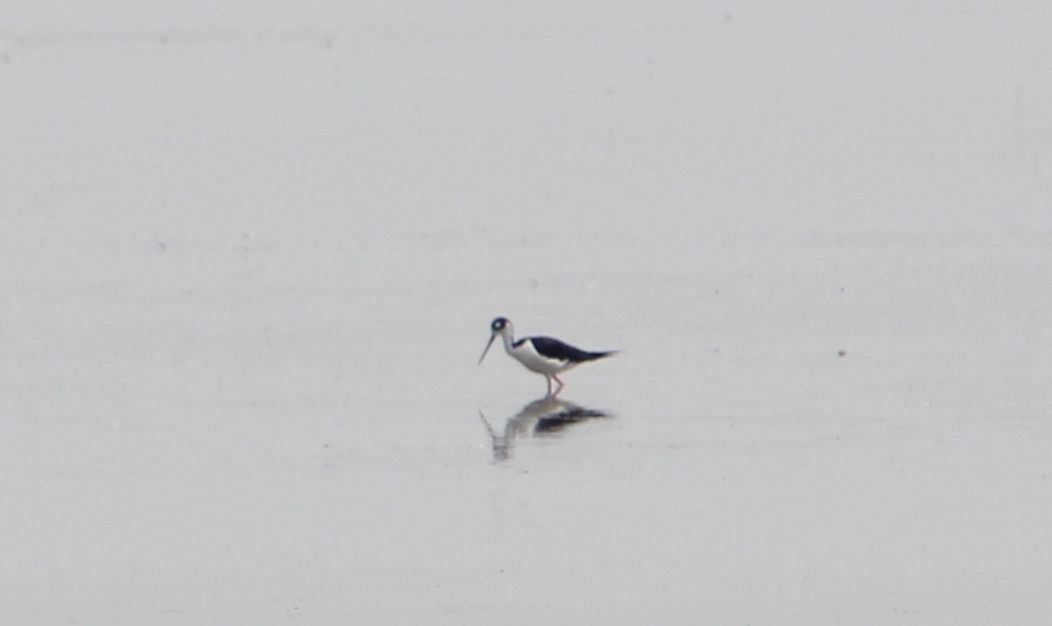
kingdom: Animalia
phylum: Chordata
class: Aves
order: Charadriiformes
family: Recurvirostridae
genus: Himantopus
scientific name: Himantopus mexicanus
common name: Black-necked stilt
